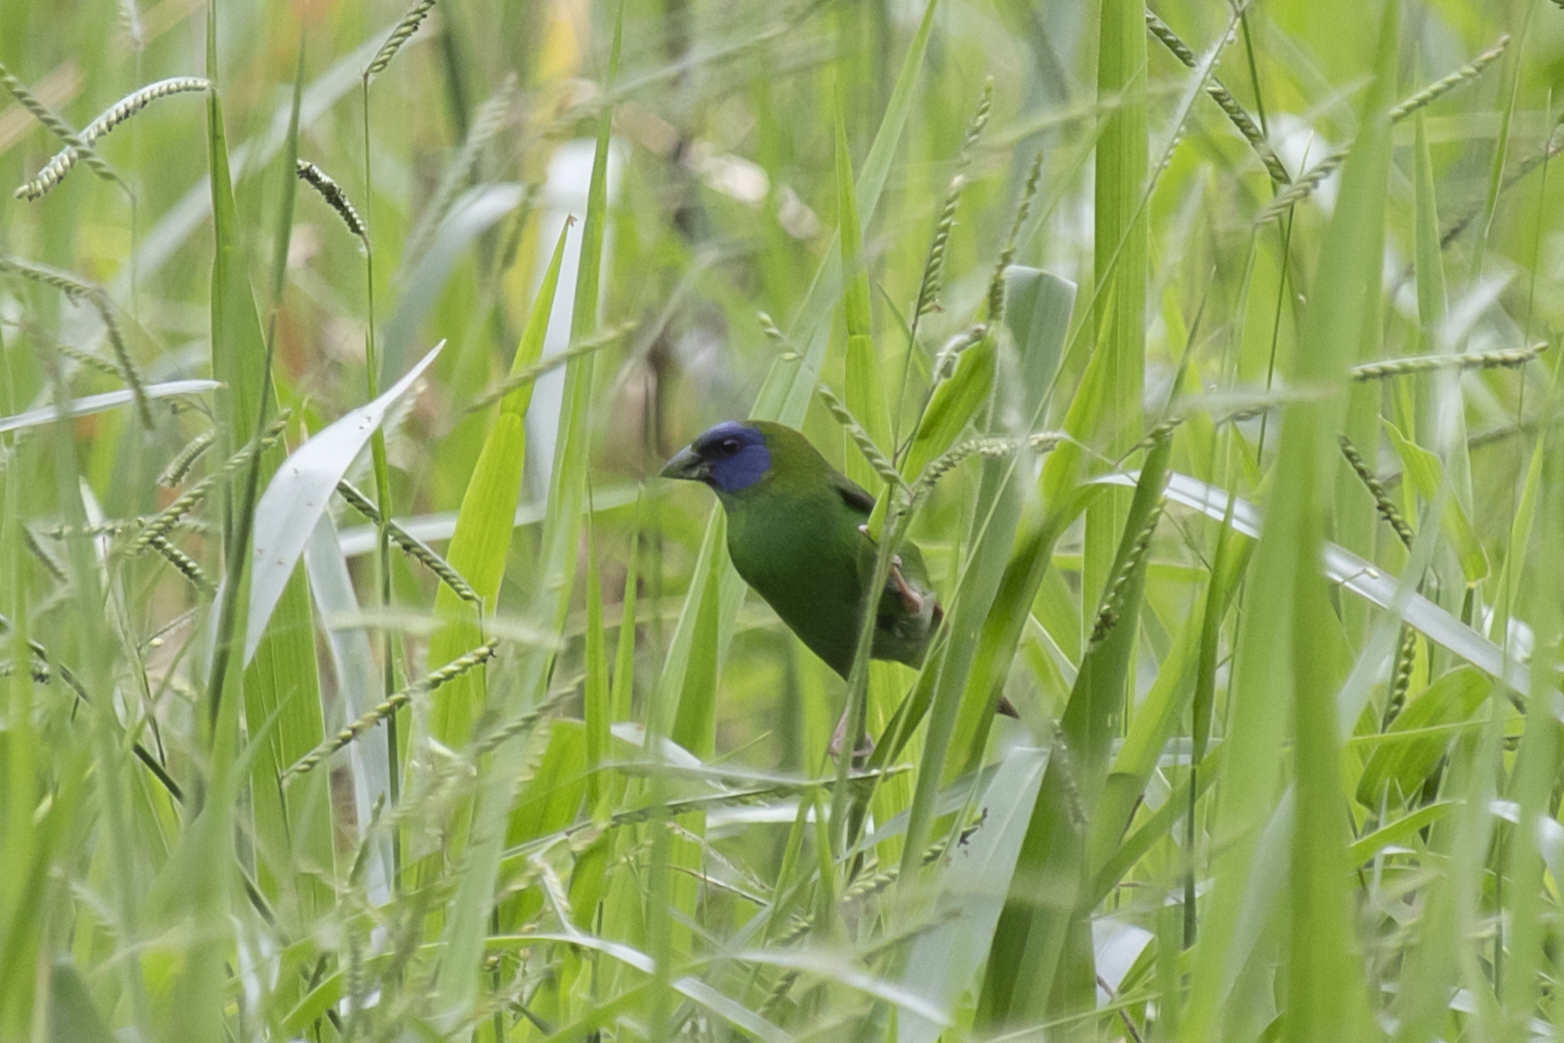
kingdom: Animalia
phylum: Chordata
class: Aves
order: Passeriformes
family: Estrildidae
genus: Erythrura
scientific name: Erythrura trichroa
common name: Blue-faced parrotfinch
